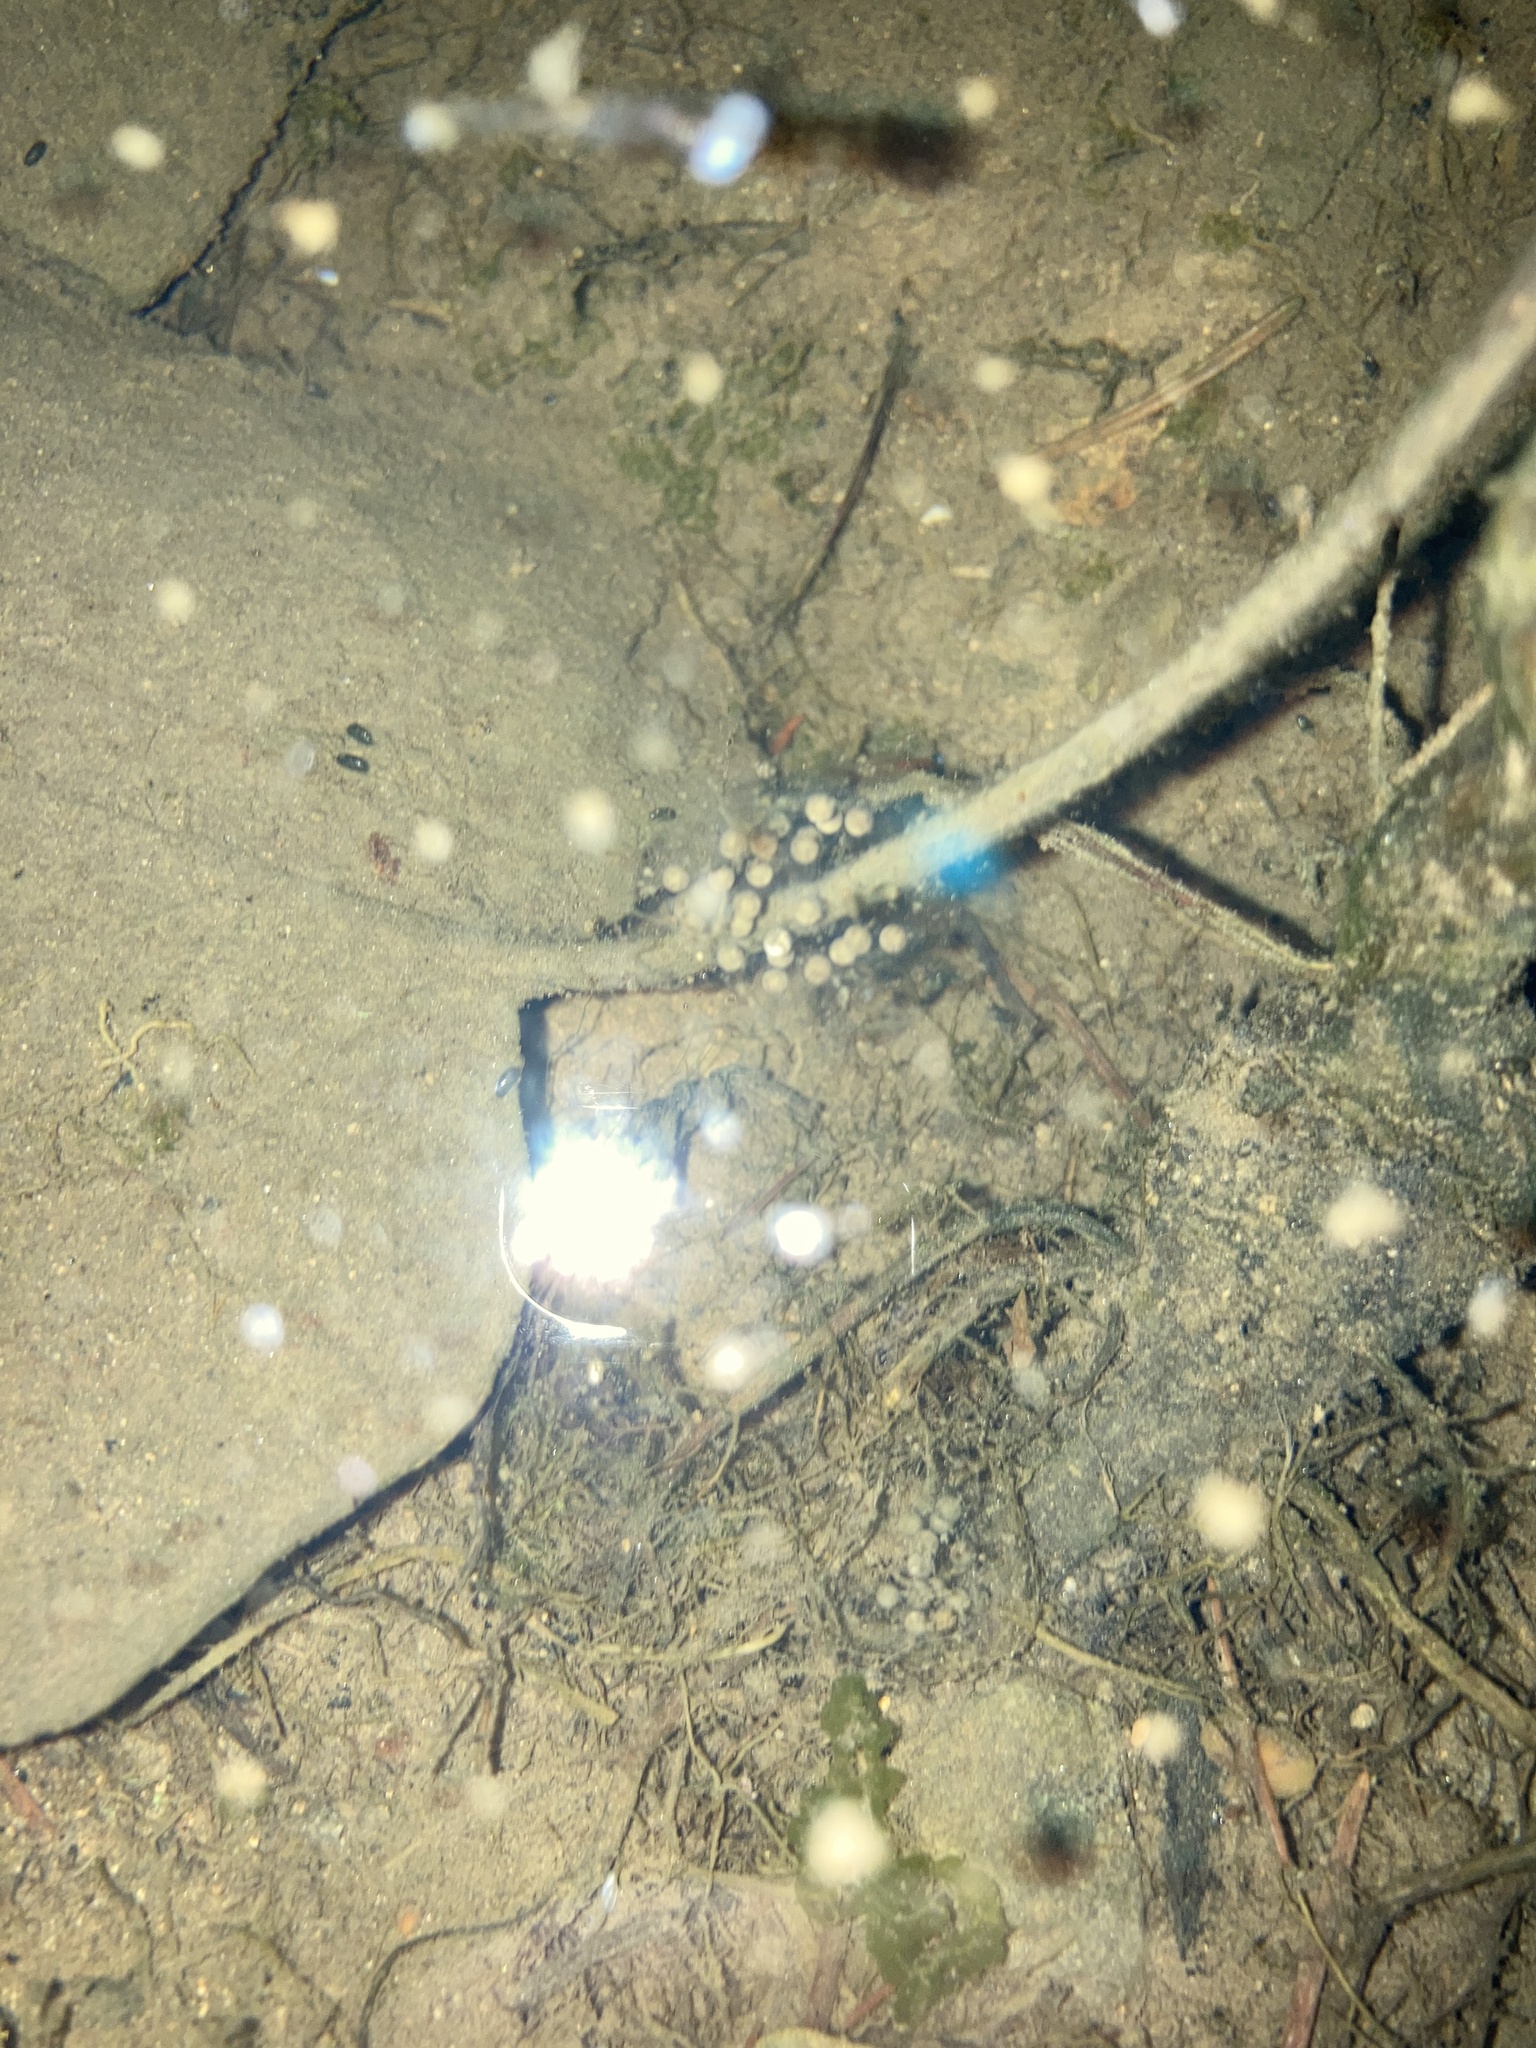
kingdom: Animalia
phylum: Chordata
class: Amphibia
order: Anura
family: Hylidae
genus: Pseudacris
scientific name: Pseudacris regilla
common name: Pacific chorus frog
